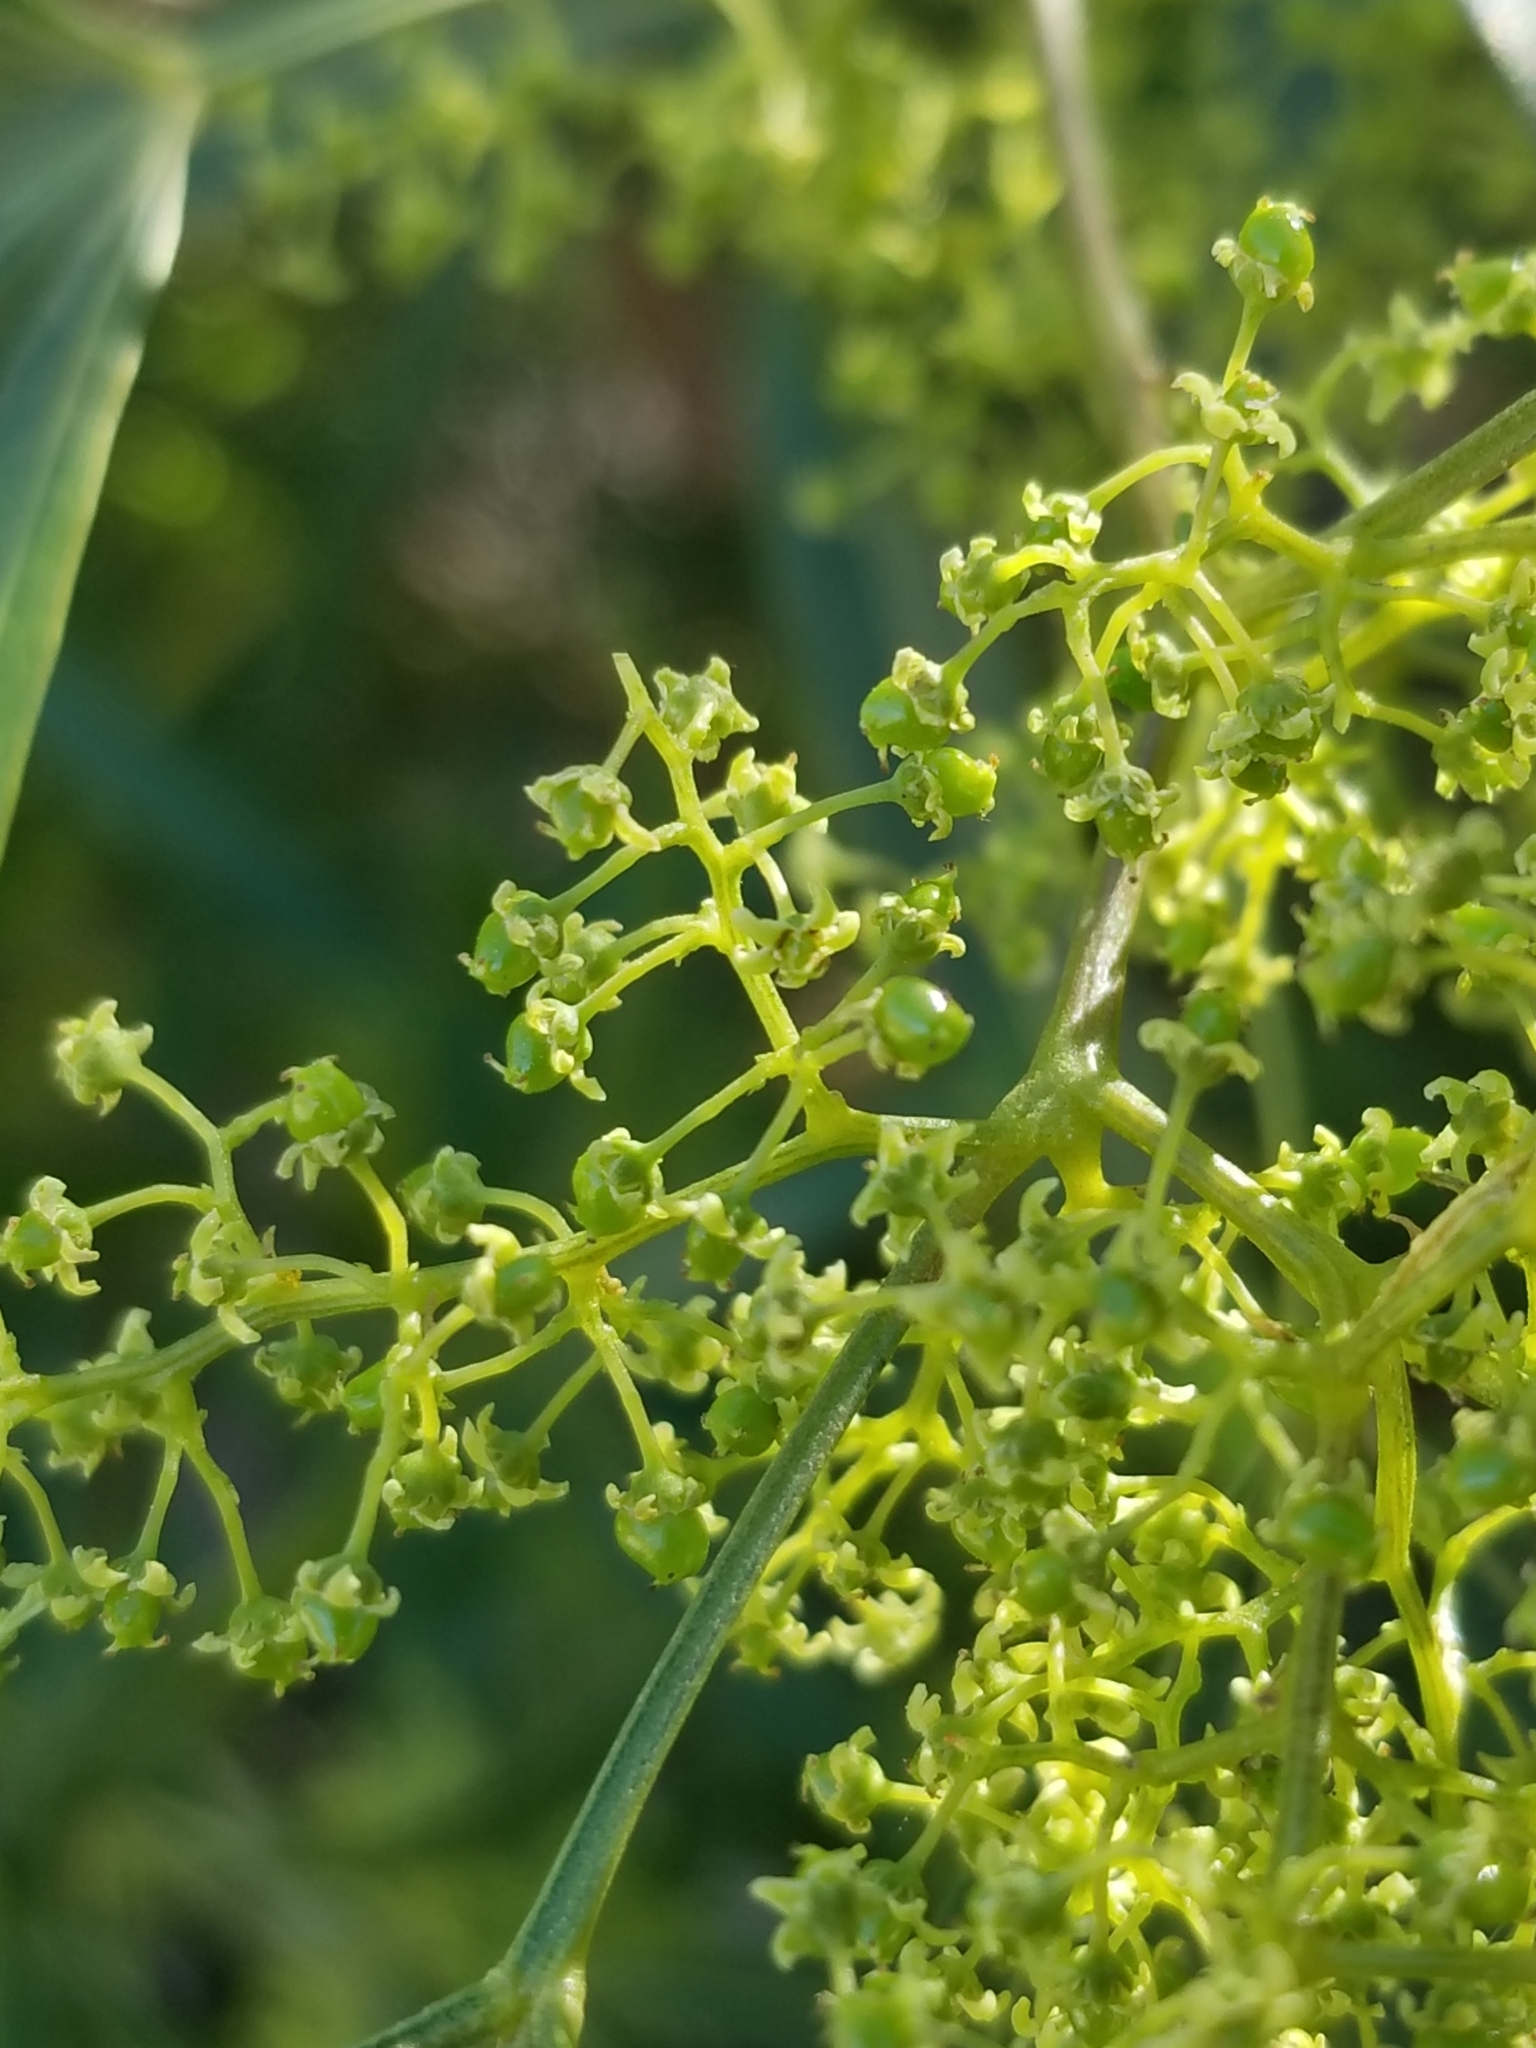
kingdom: Plantae
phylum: Tracheophyta
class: Magnoliopsida
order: Sapindales
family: Anacardiaceae
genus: Searsia
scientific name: Searsia lancea
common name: Cashew
